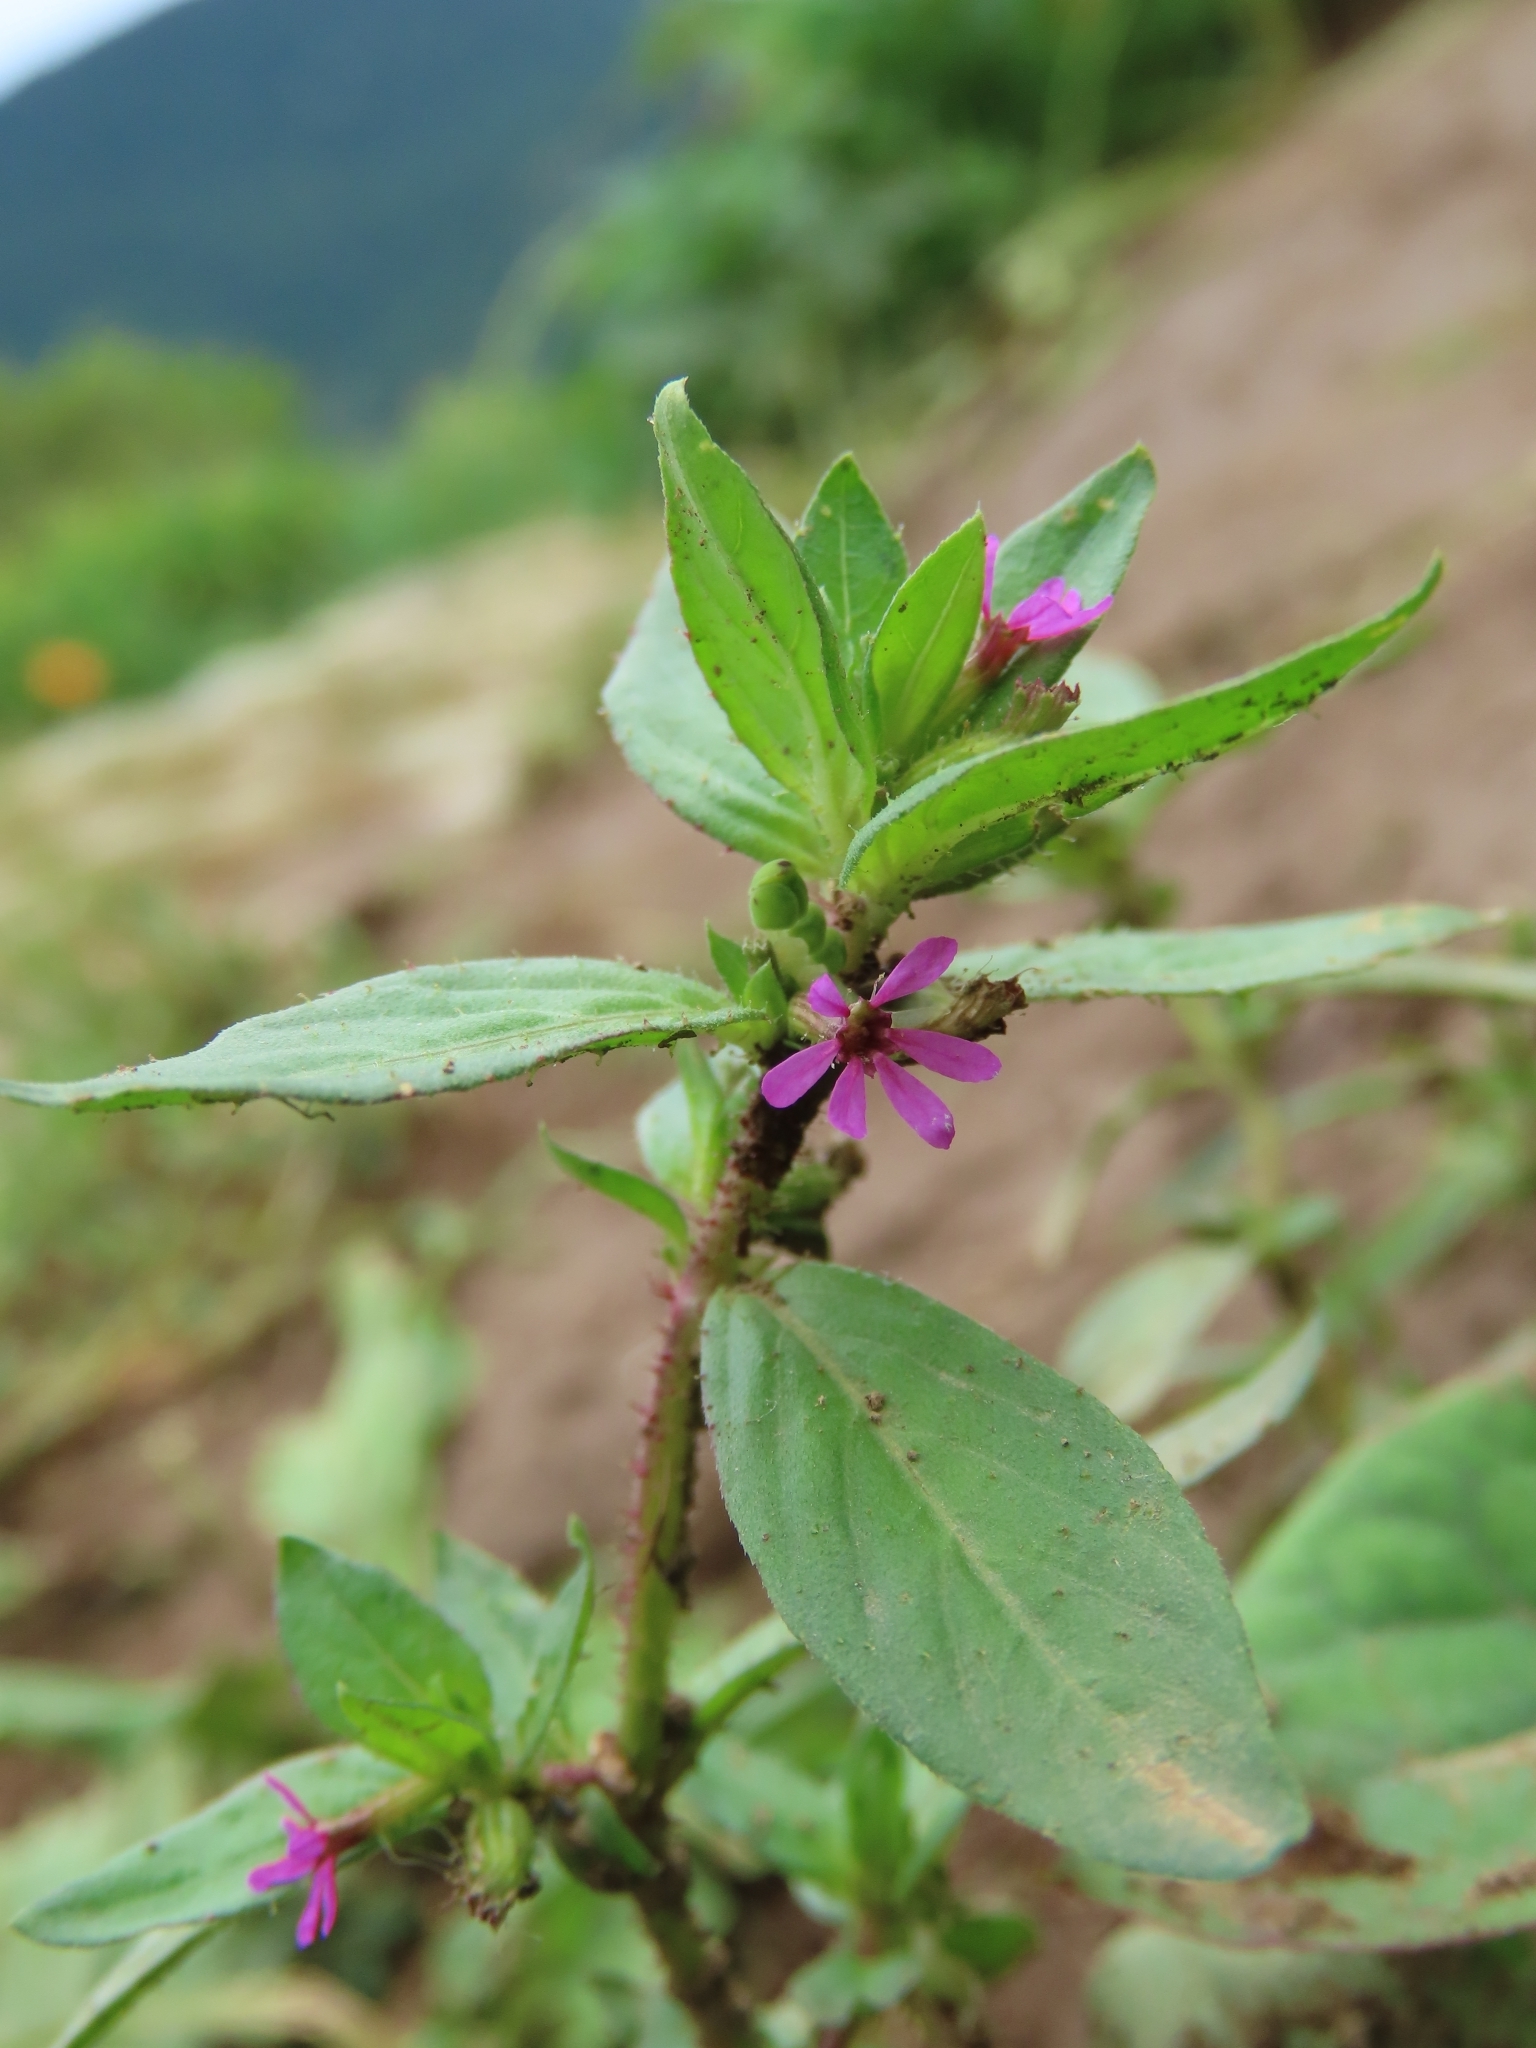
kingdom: Plantae
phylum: Tracheophyta
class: Magnoliopsida
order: Myrtales
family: Lythraceae
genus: Cuphea
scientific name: Cuphea carthagenensis
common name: Colombian waxweed
